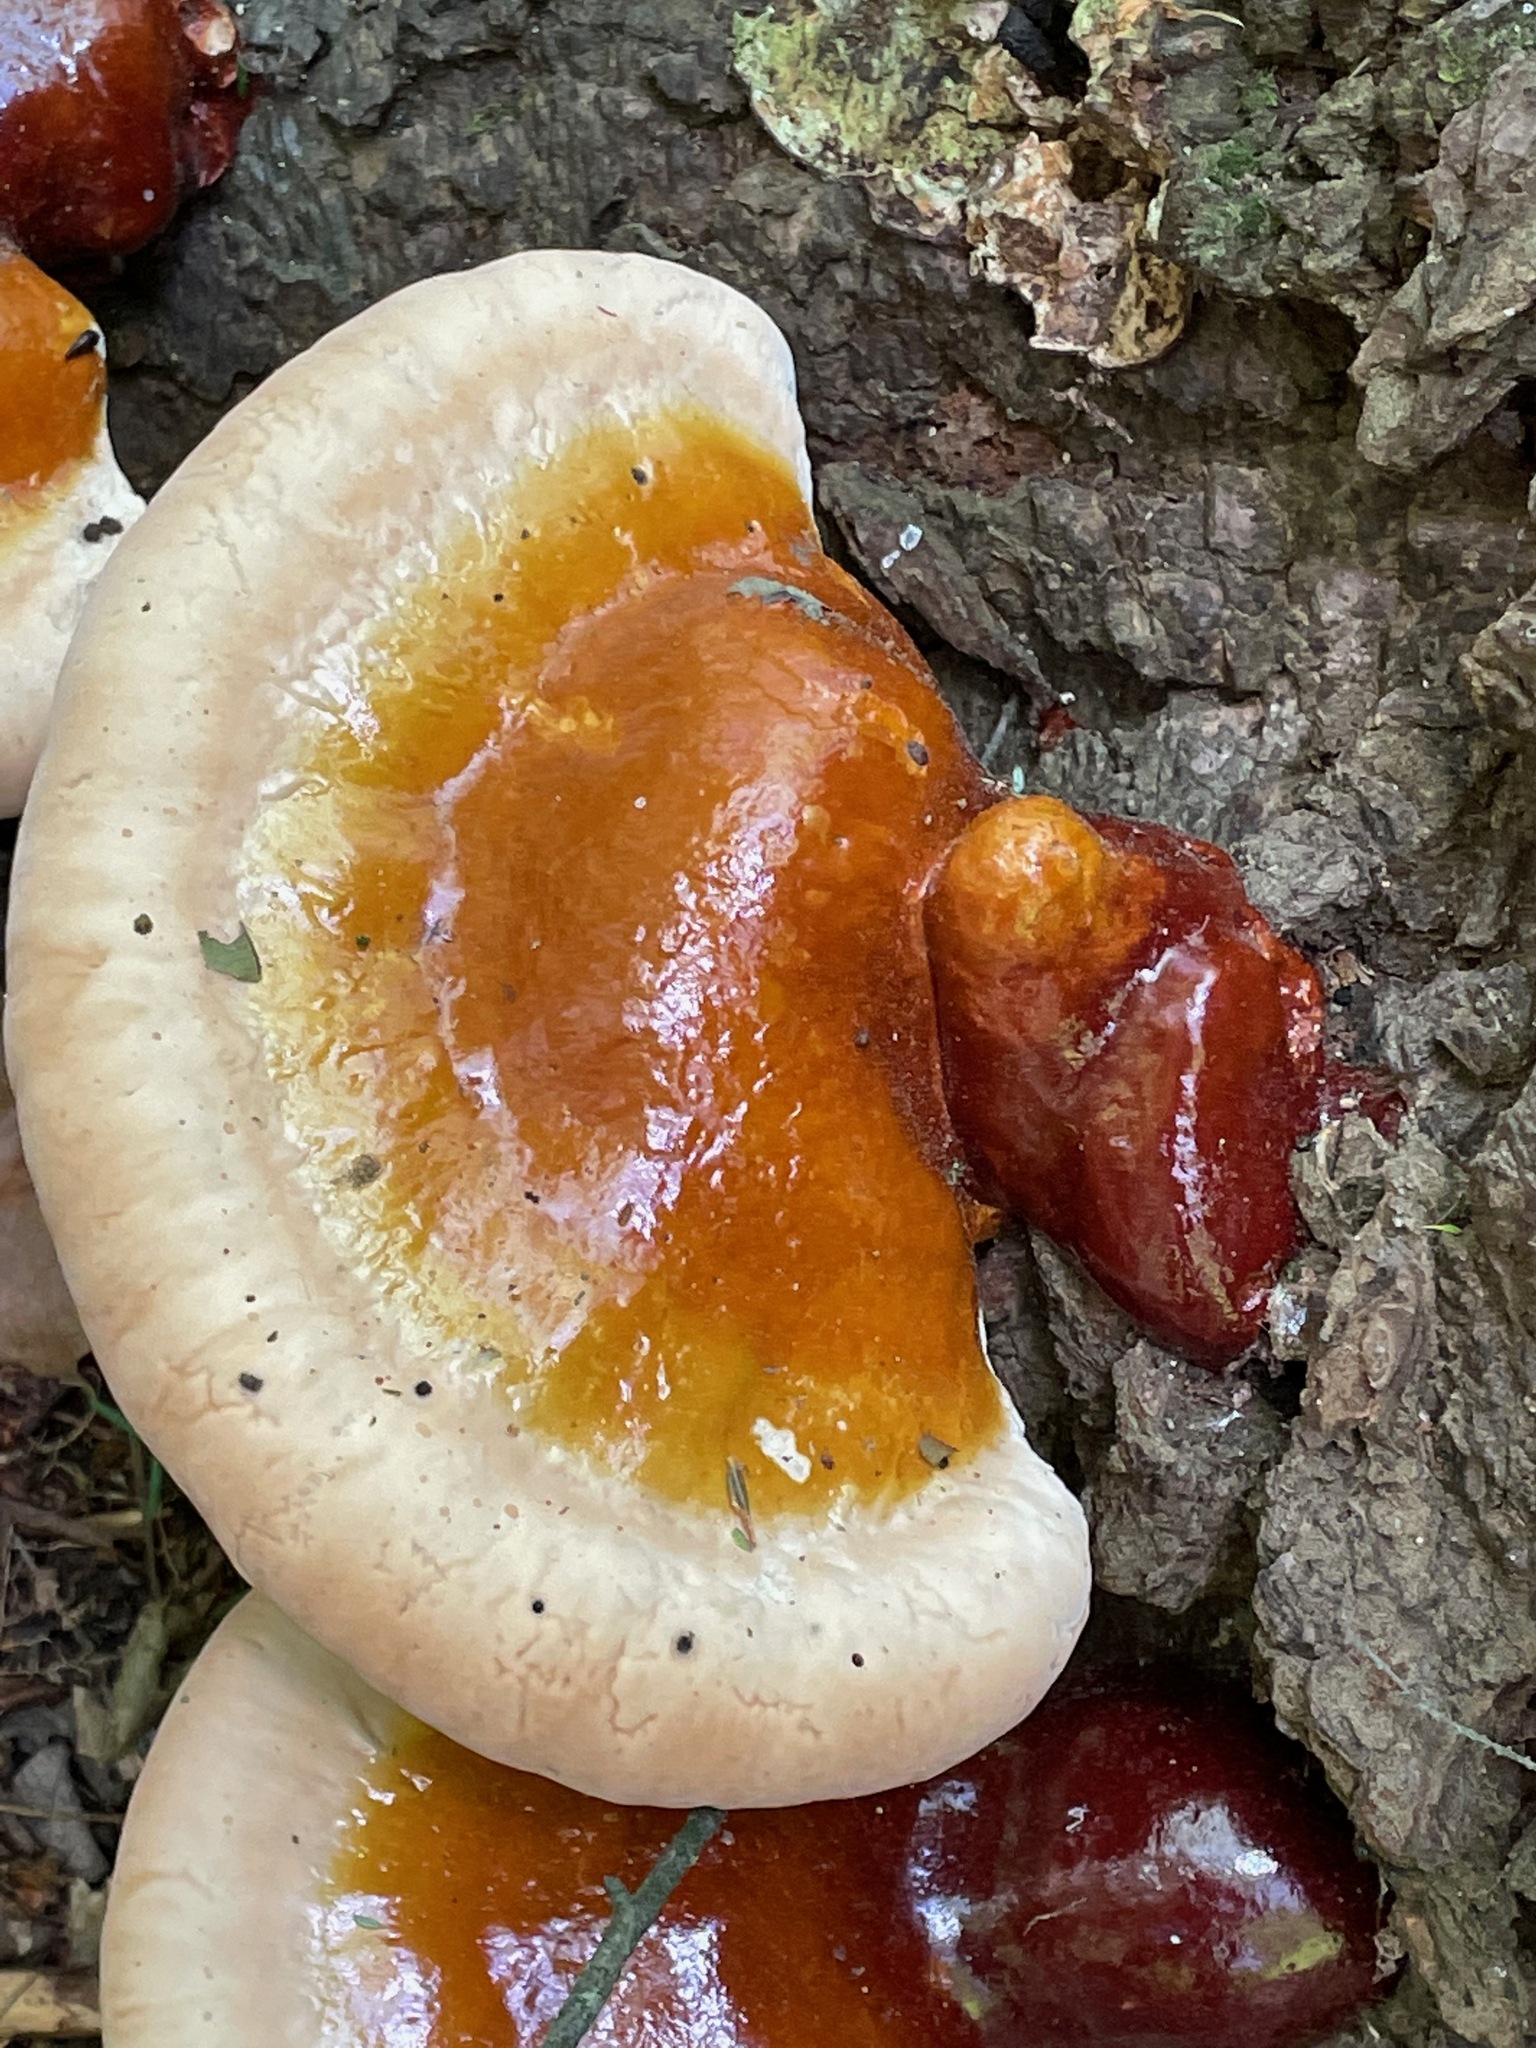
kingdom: Fungi
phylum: Basidiomycota
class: Agaricomycetes
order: Polyporales
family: Polyporaceae
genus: Ganoderma
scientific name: Ganoderma tsugae
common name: Hemlock varnish shelf
